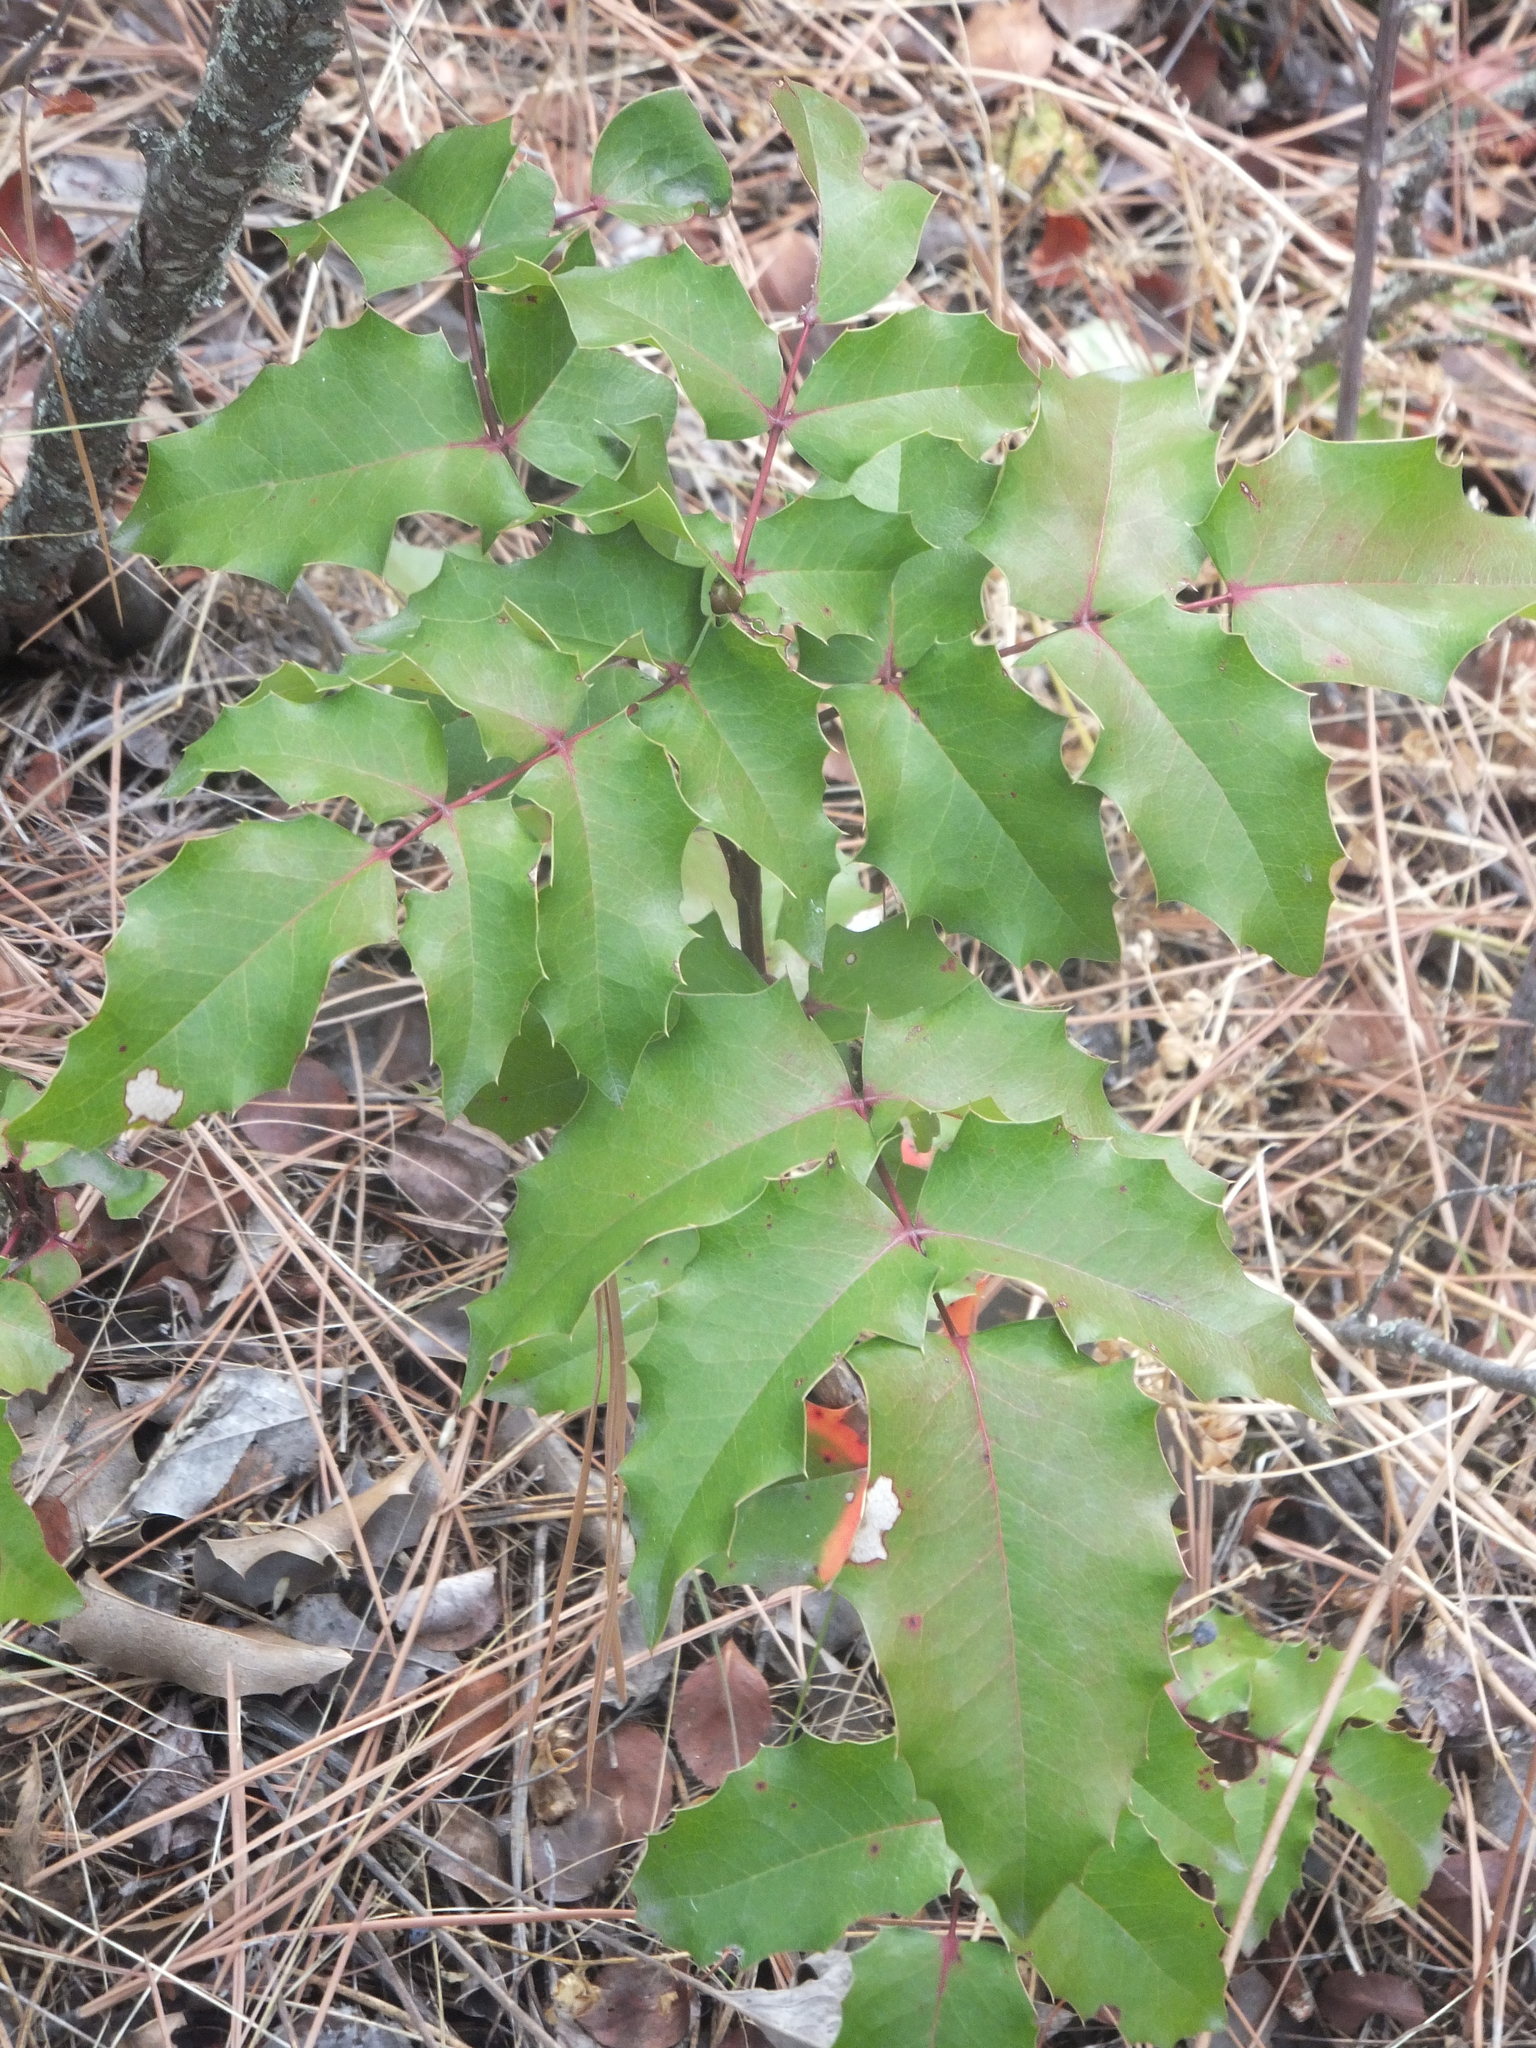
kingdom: Plantae
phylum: Tracheophyta
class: Magnoliopsida
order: Ranunculales
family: Berberidaceae
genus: Mahonia
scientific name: Mahonia repens
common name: Creeping oregon-grape
